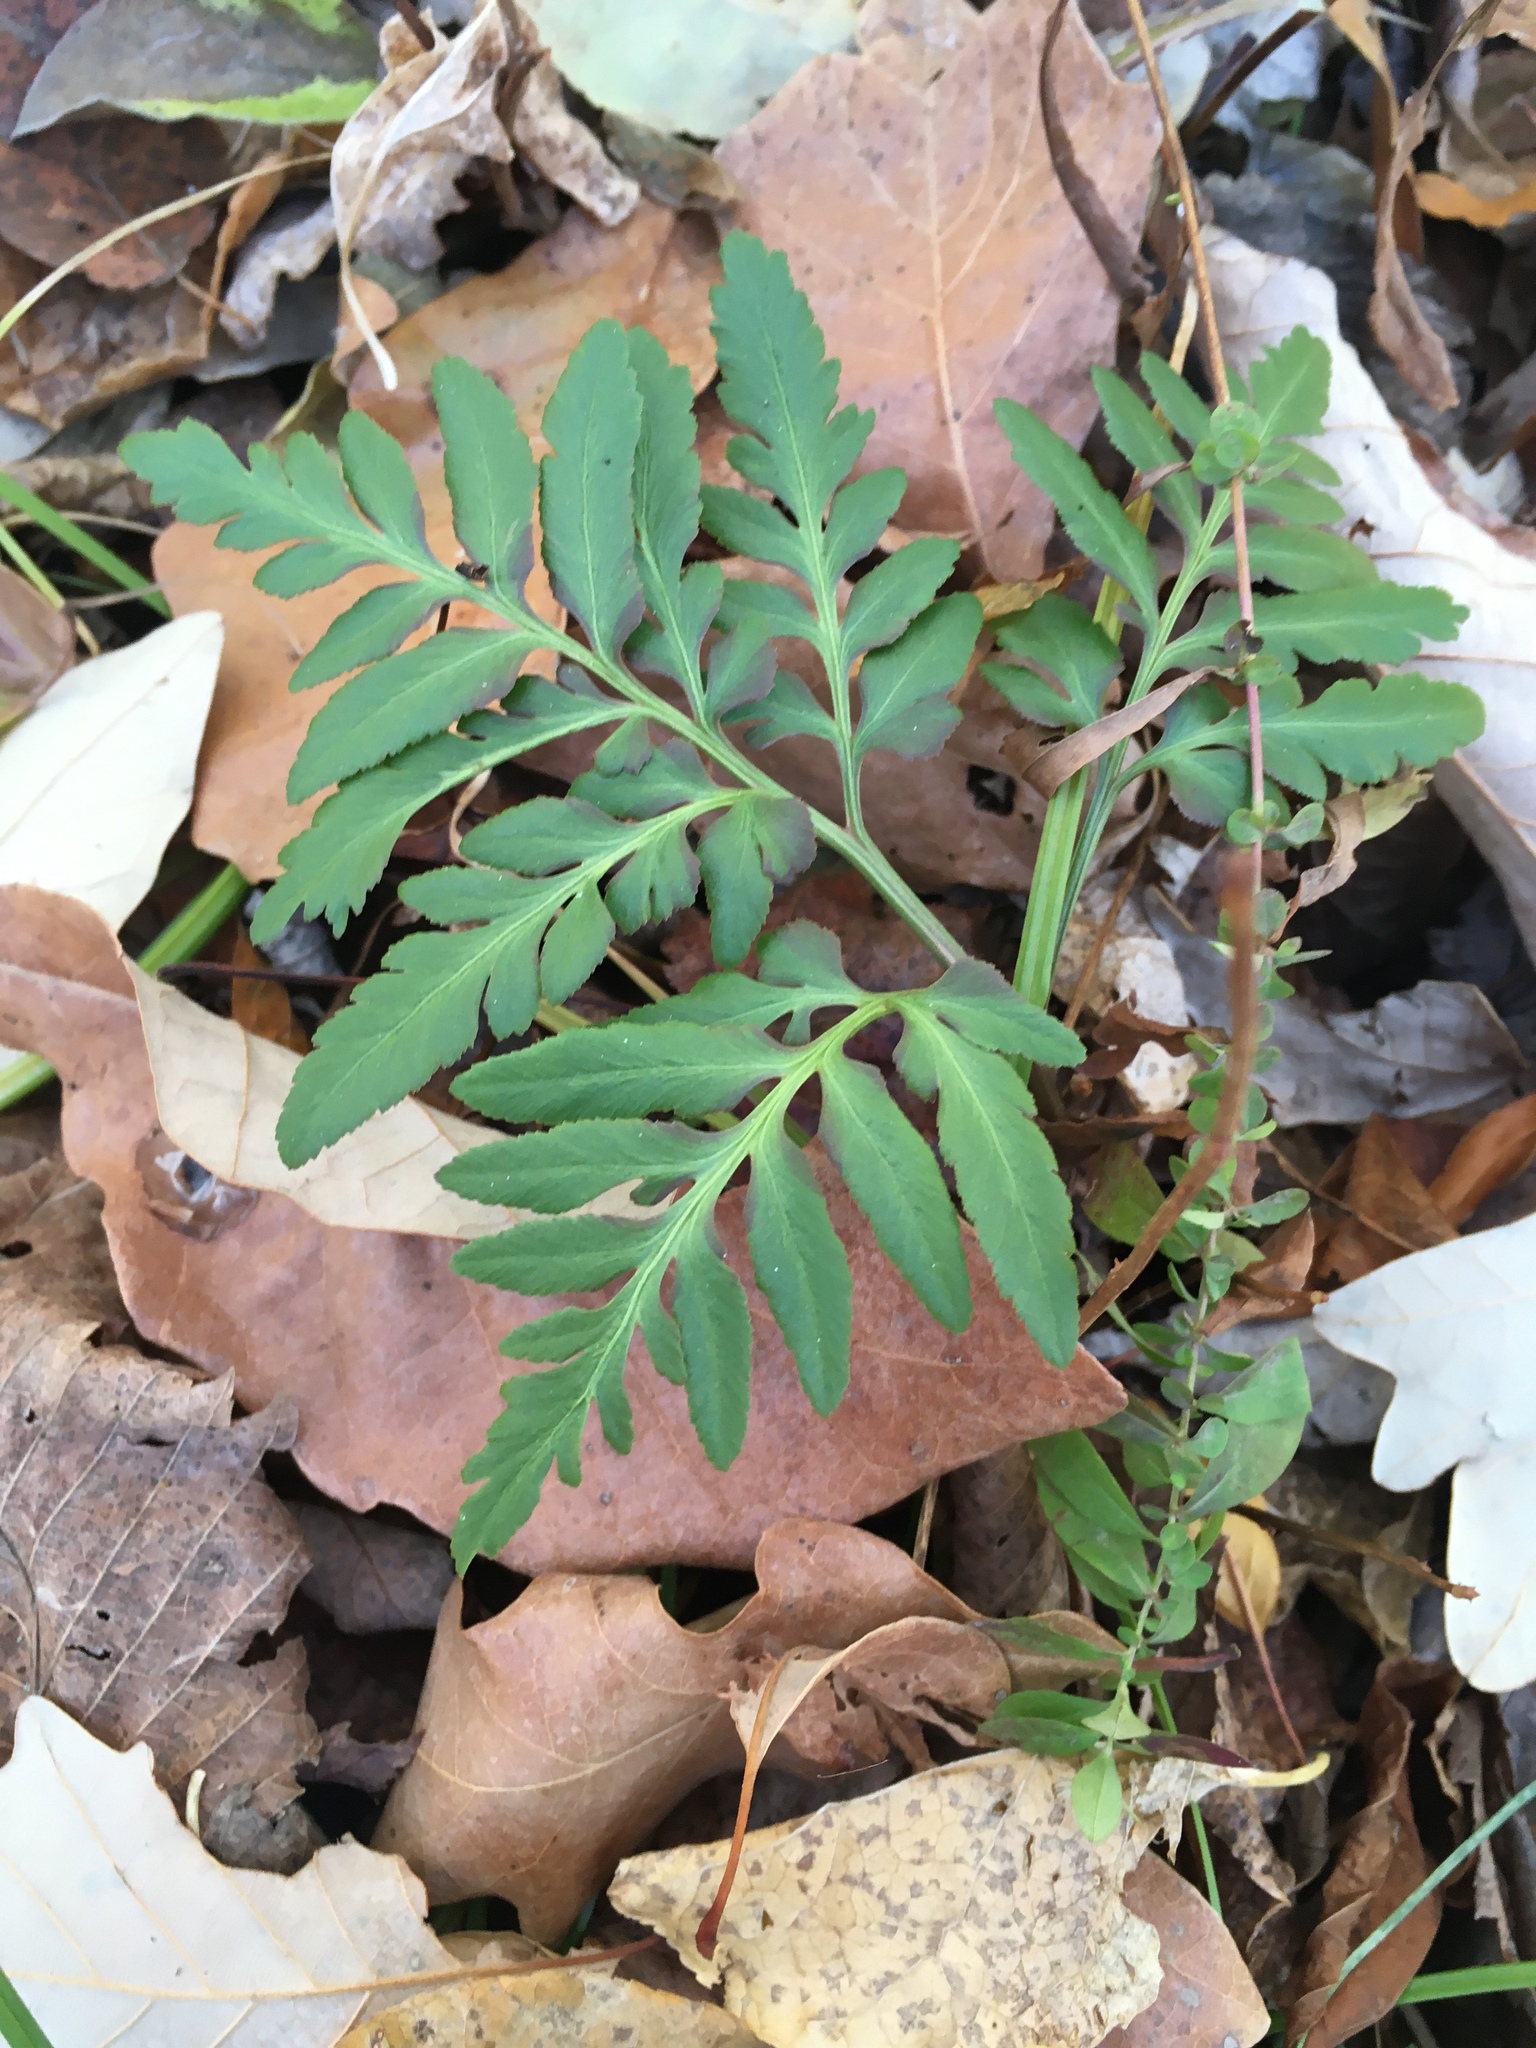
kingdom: Plantae
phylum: Tracheophyta
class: Polypodiopsida
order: Ophioglossales
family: Ophioglossaceae
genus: Sceptridium
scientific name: Sceptridium dissectum
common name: Cut-leaved grapefern
